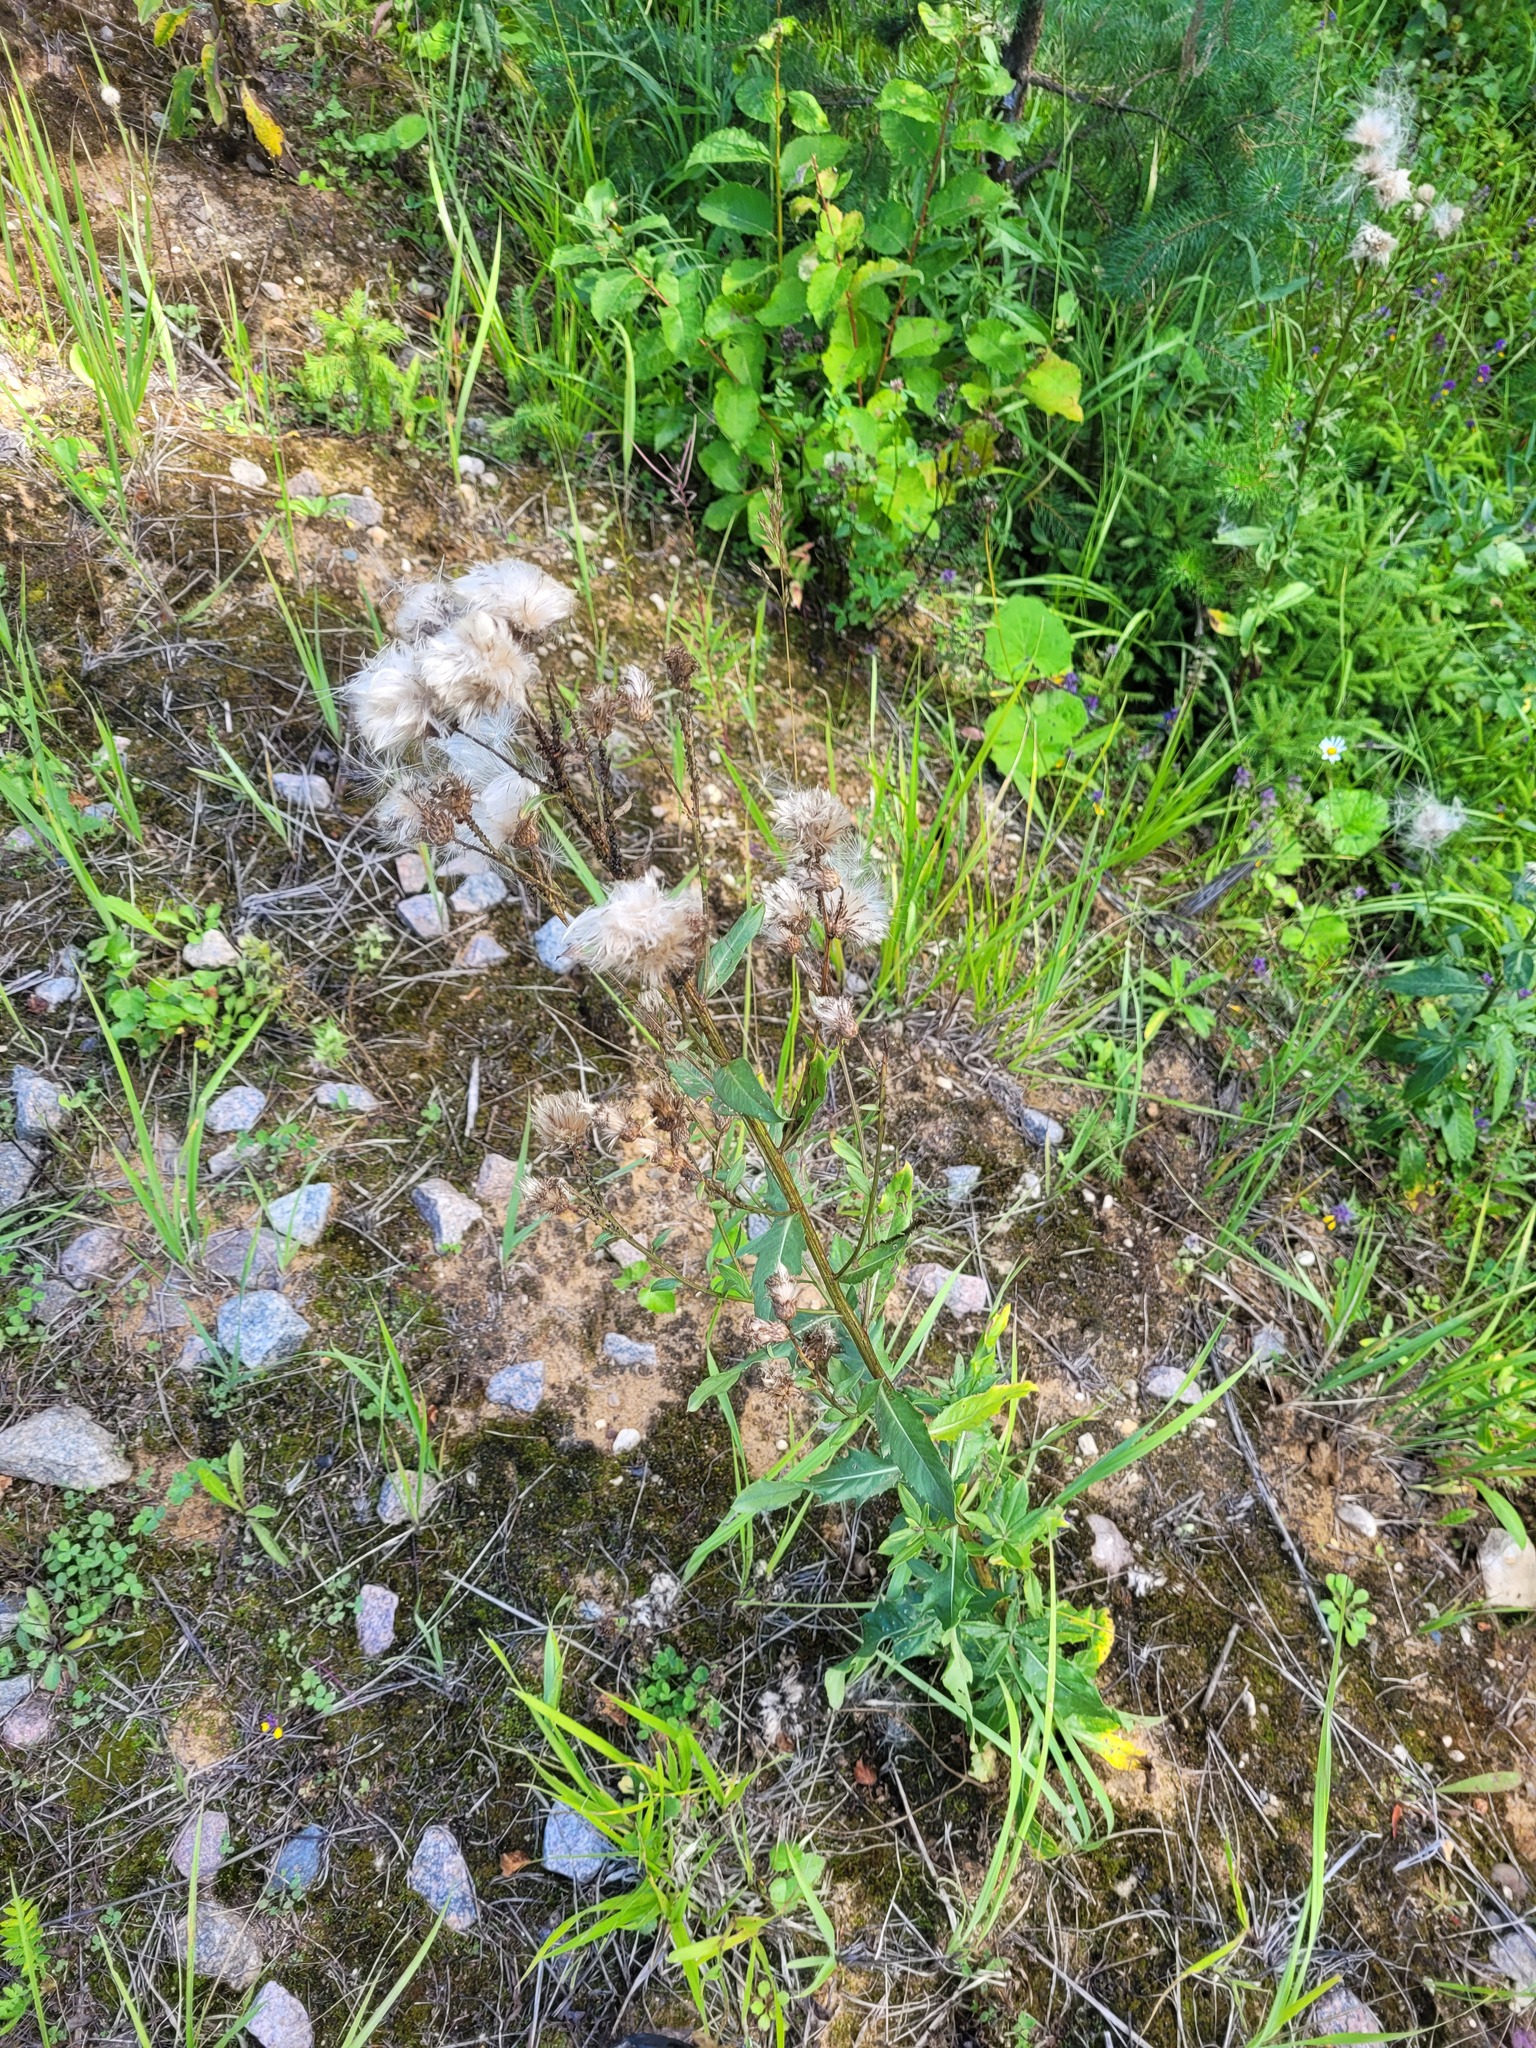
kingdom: Plantae
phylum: Tracheophyta
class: Magnoliopsida
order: Asterales
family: Asteraceae
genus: Cirsium
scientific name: Cirsium arvense
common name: Creeping thistle
